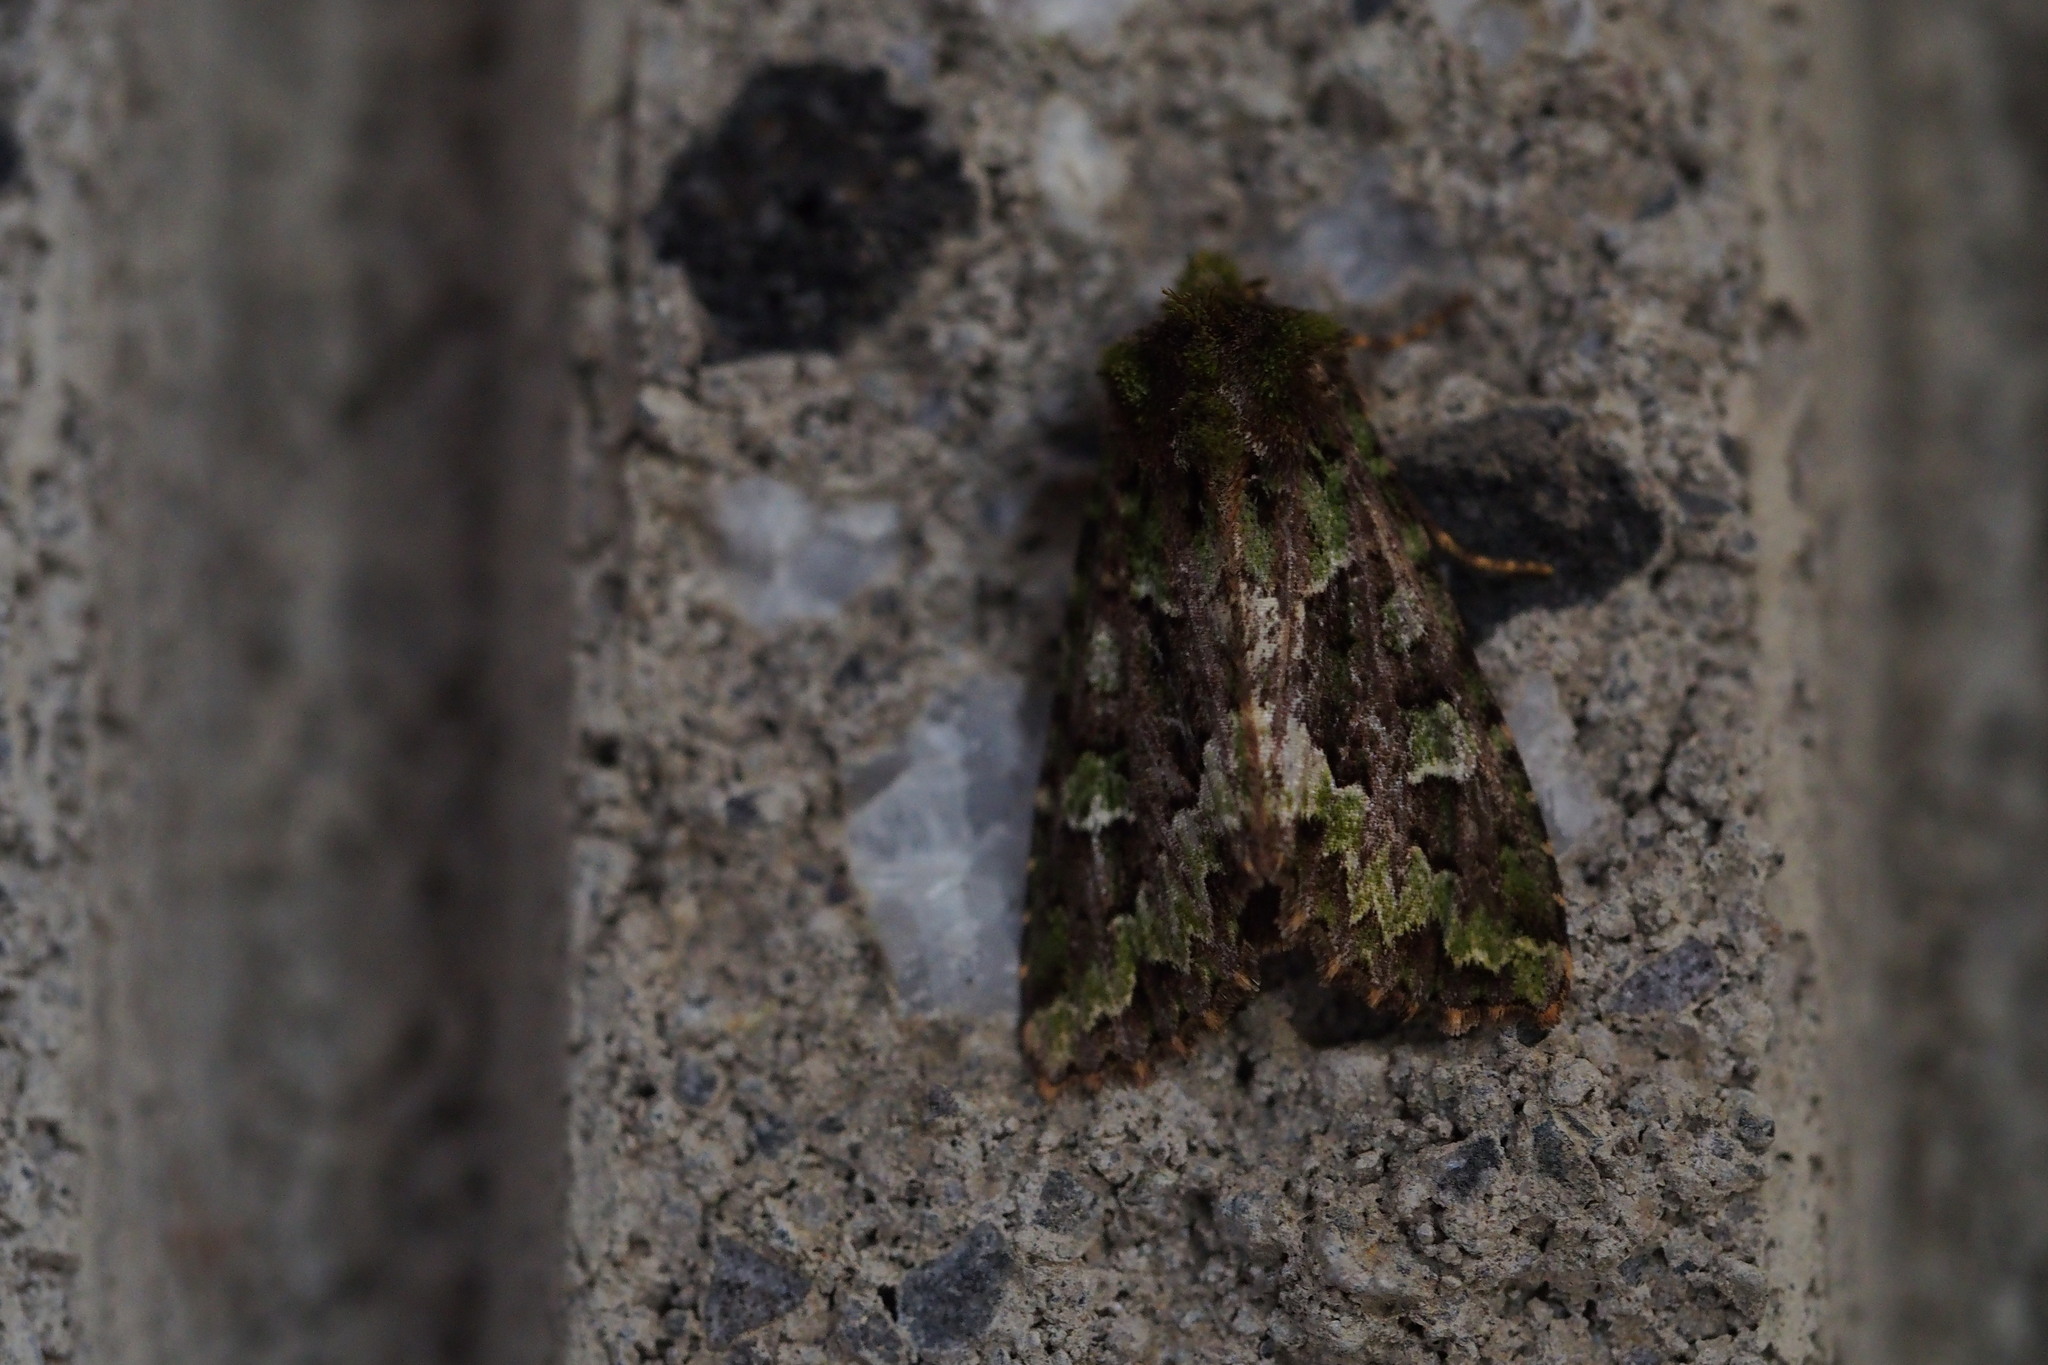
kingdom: Animalia
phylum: Arthropoda
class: Insecta
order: Lepidoptera
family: Noctuidae
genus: Antivaleria
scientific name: Antivaleria viridimacula
